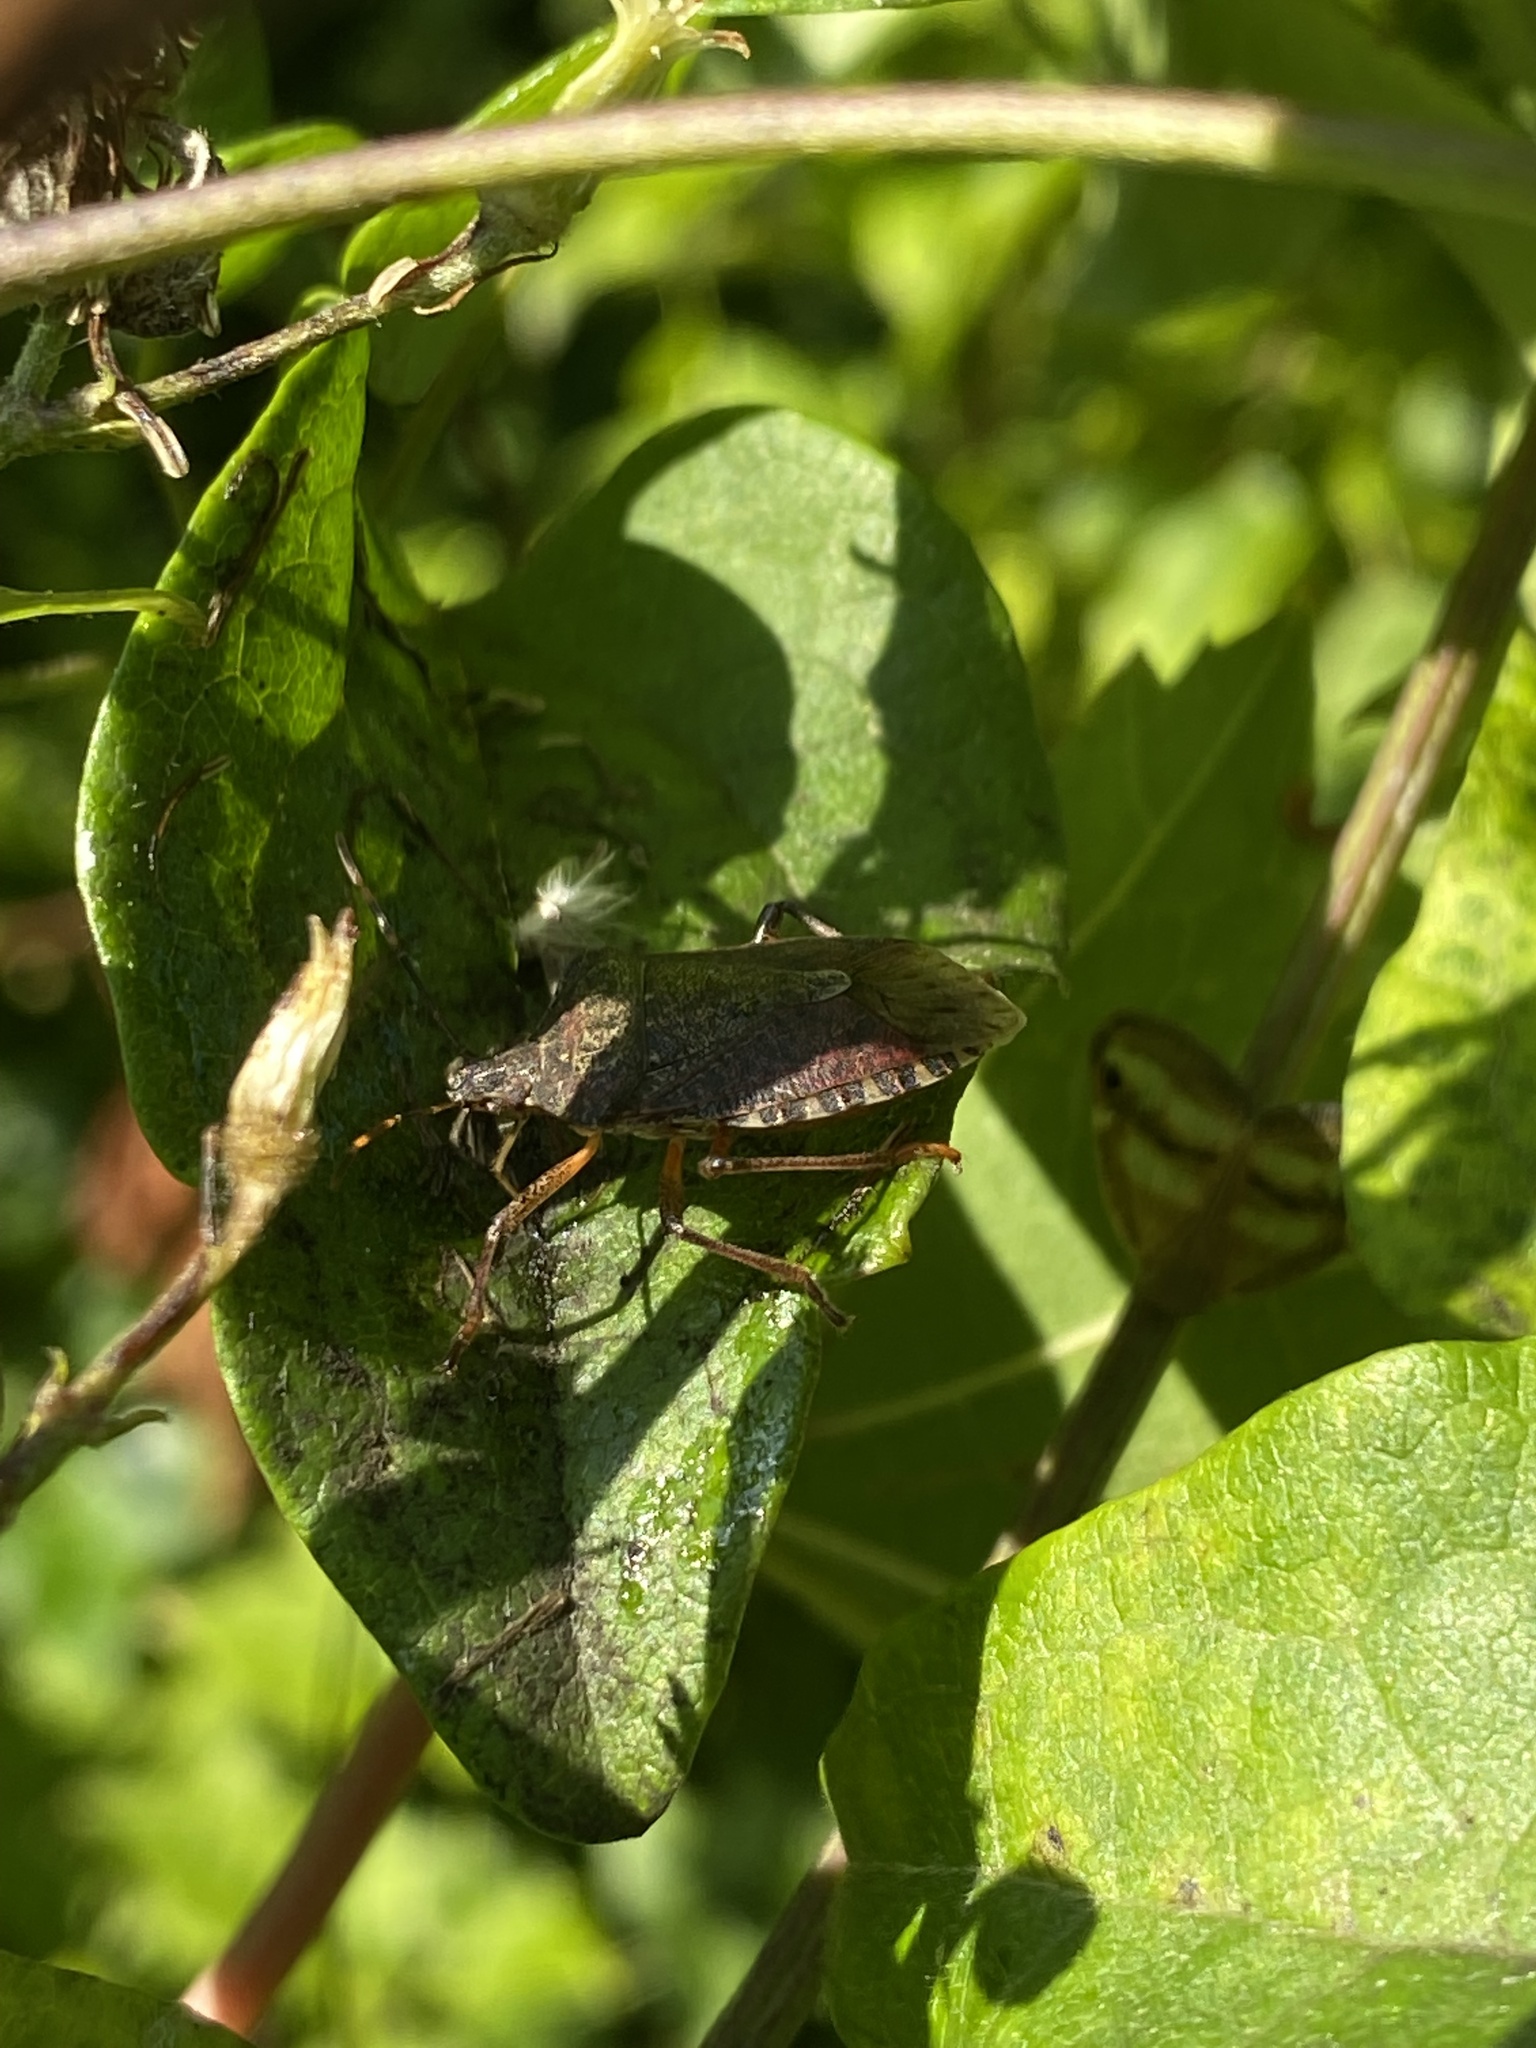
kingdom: Animalia
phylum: Arthropoda
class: Insecta
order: Hemiptera
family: Pentatomidae
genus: Halyomorpha
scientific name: Halyomorpha halys
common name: Brown marmorated stink bug
